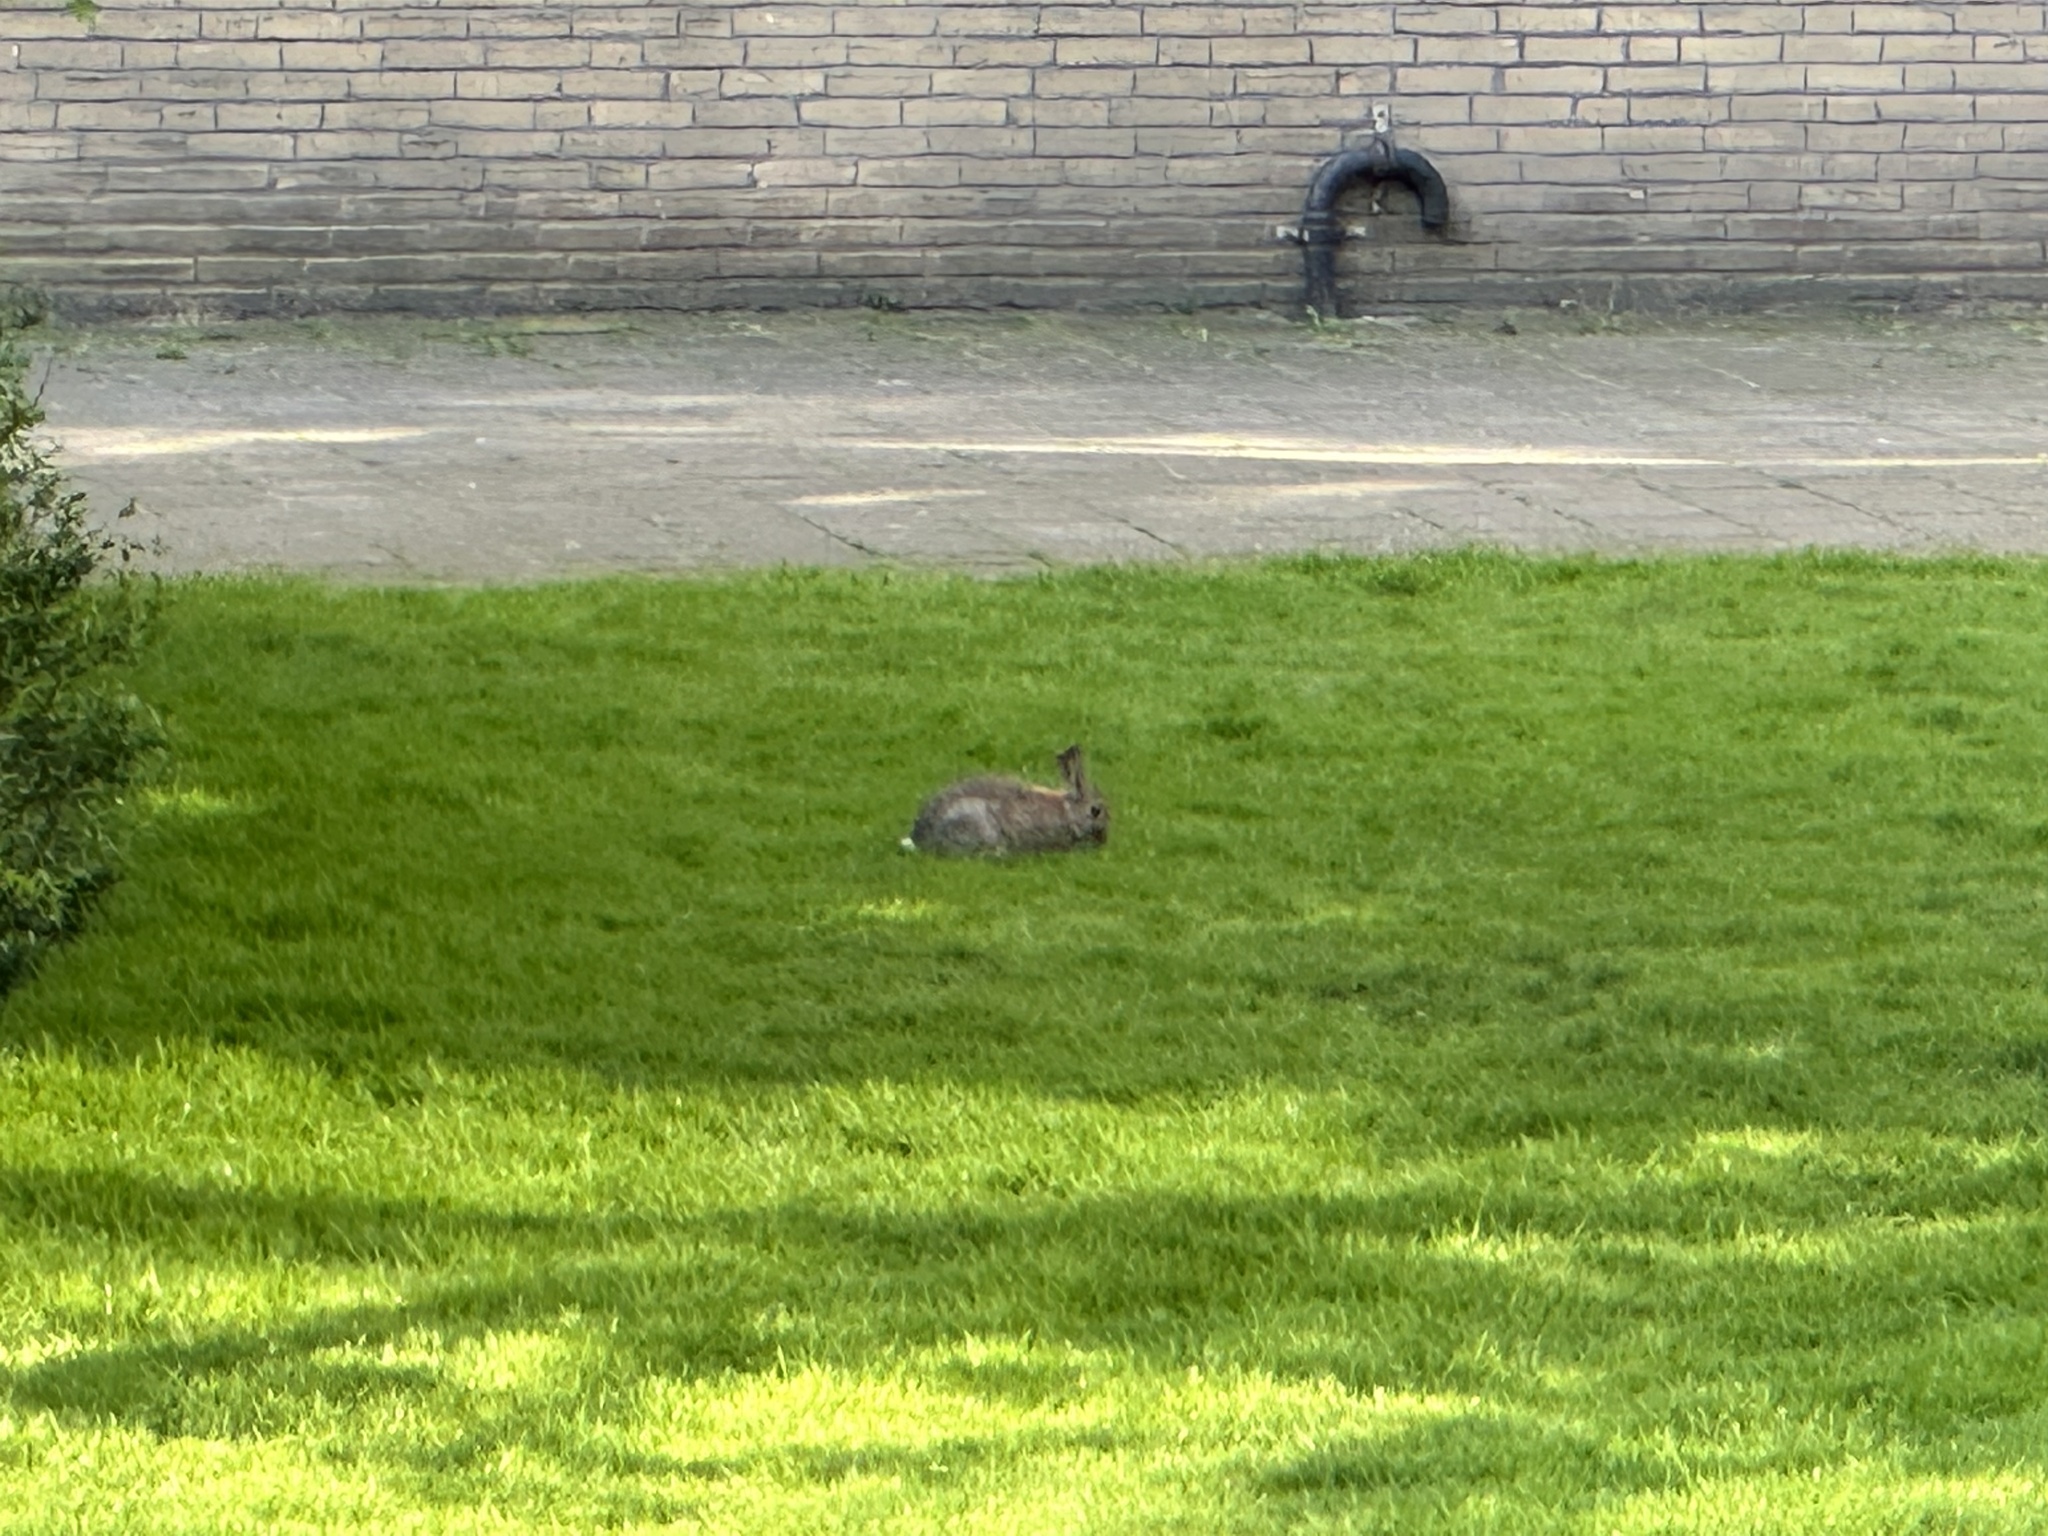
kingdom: Animalia
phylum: Chordata
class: Mammalia
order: Lagomorpha
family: Leporidae
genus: Oryctolagus
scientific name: Oryctolagus cuniculus
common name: European rabbit
